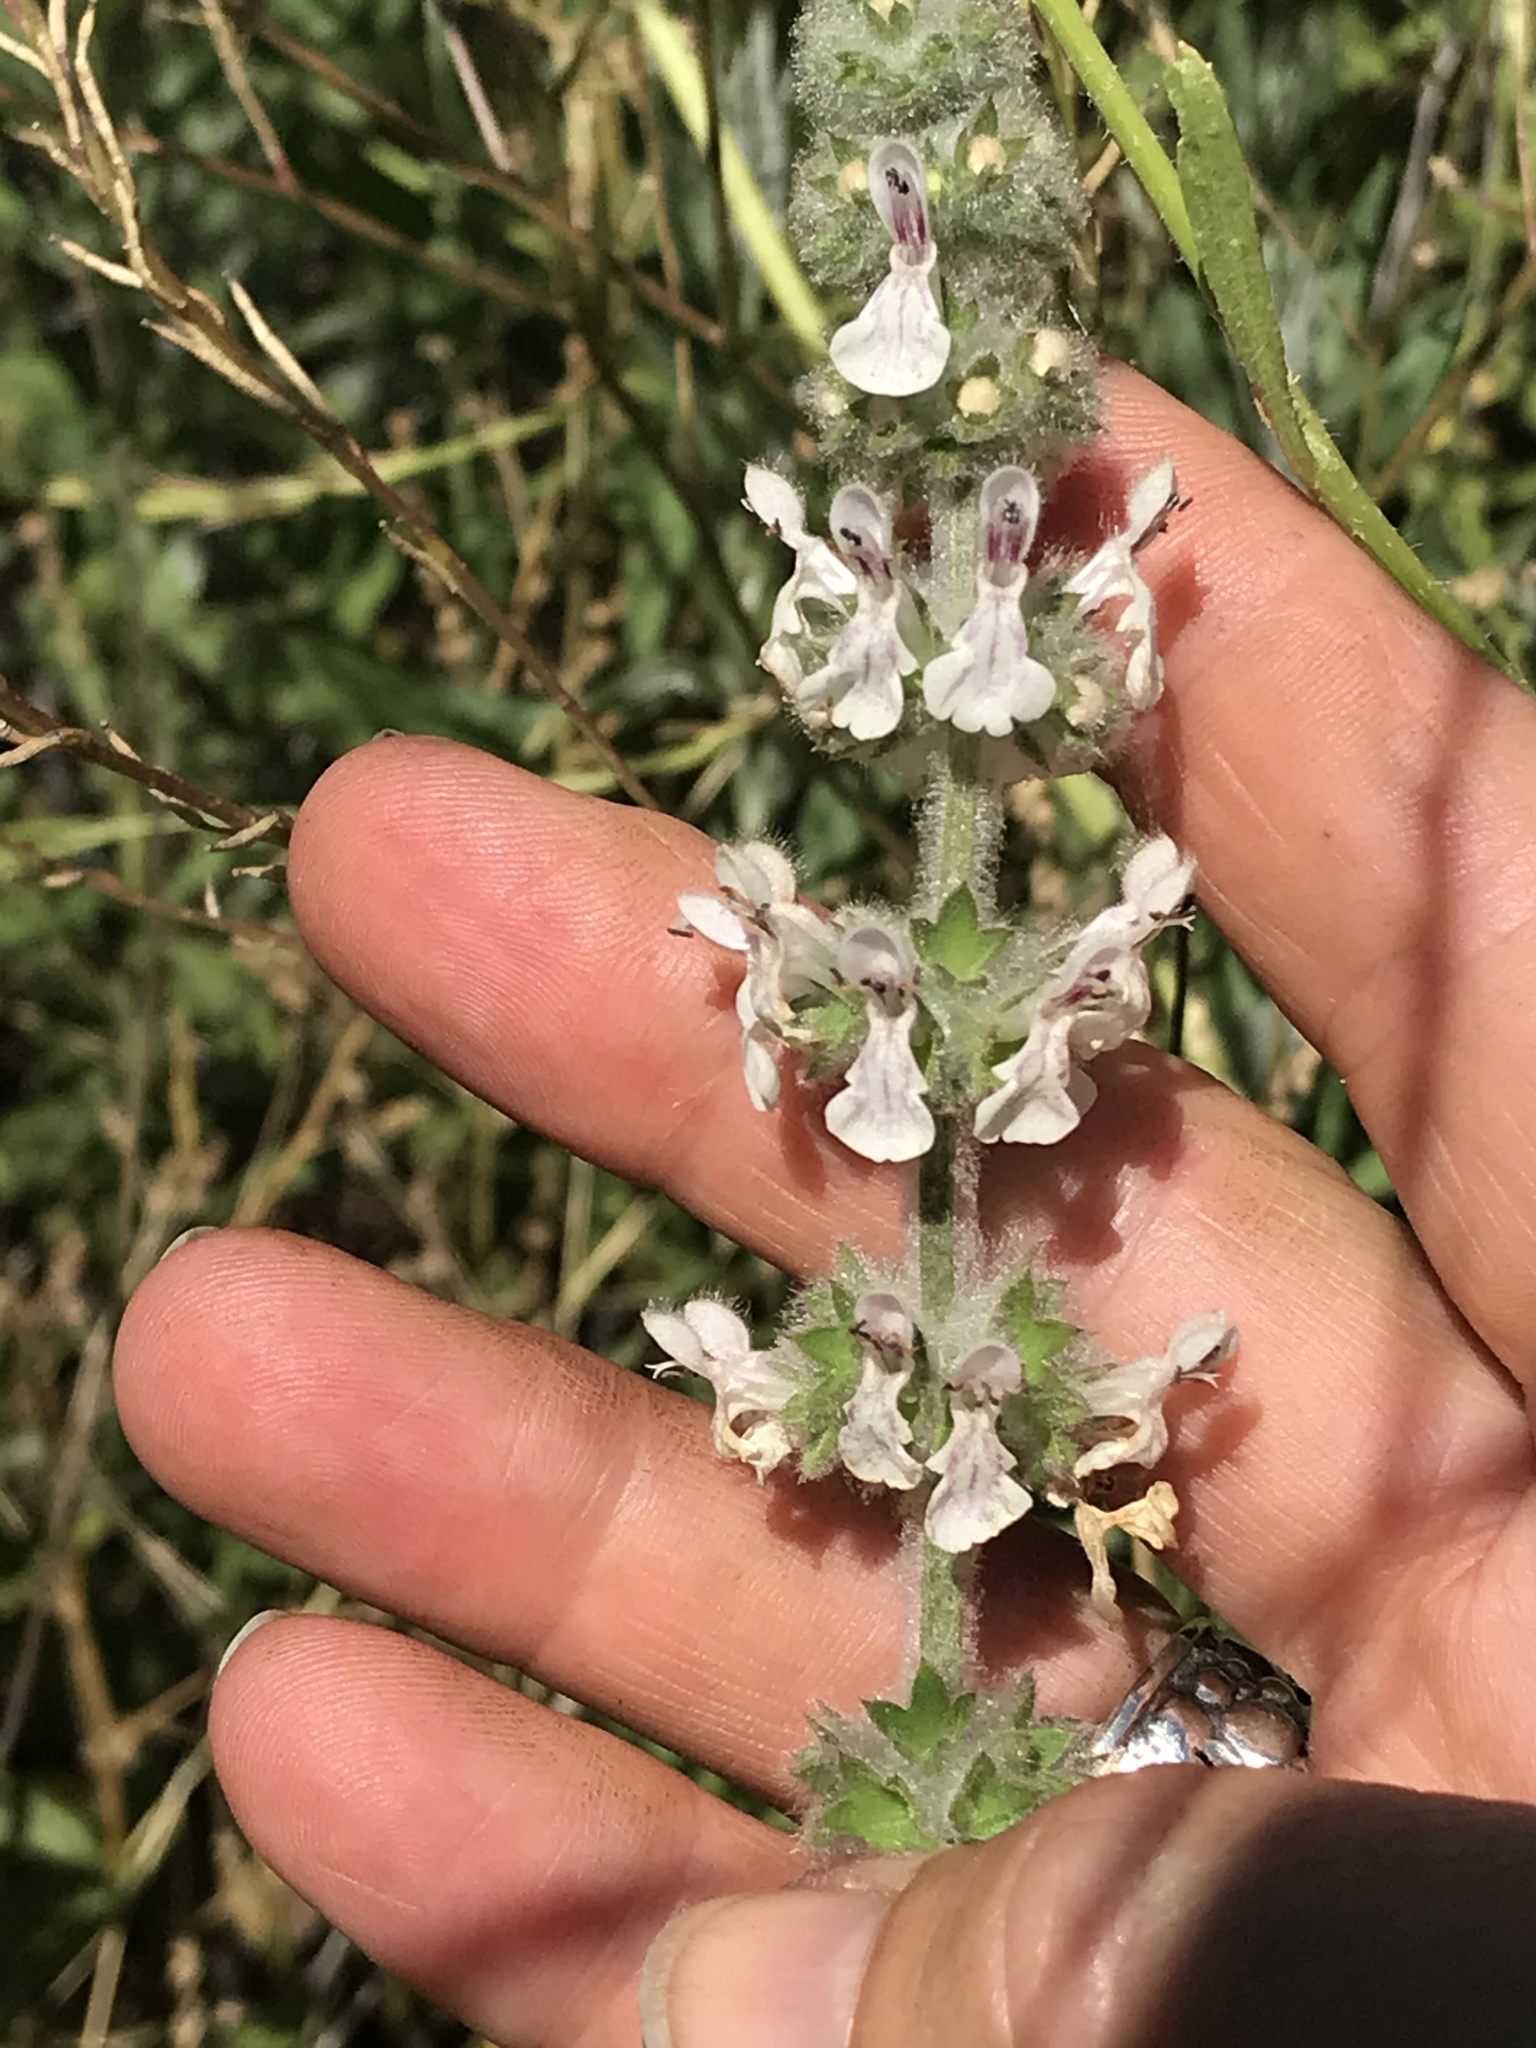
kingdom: Plantae
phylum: Tracheophyta
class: Magnoliopsida
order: Lamiales
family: Lamiaceae
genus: Stachys
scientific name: Stachys albens
